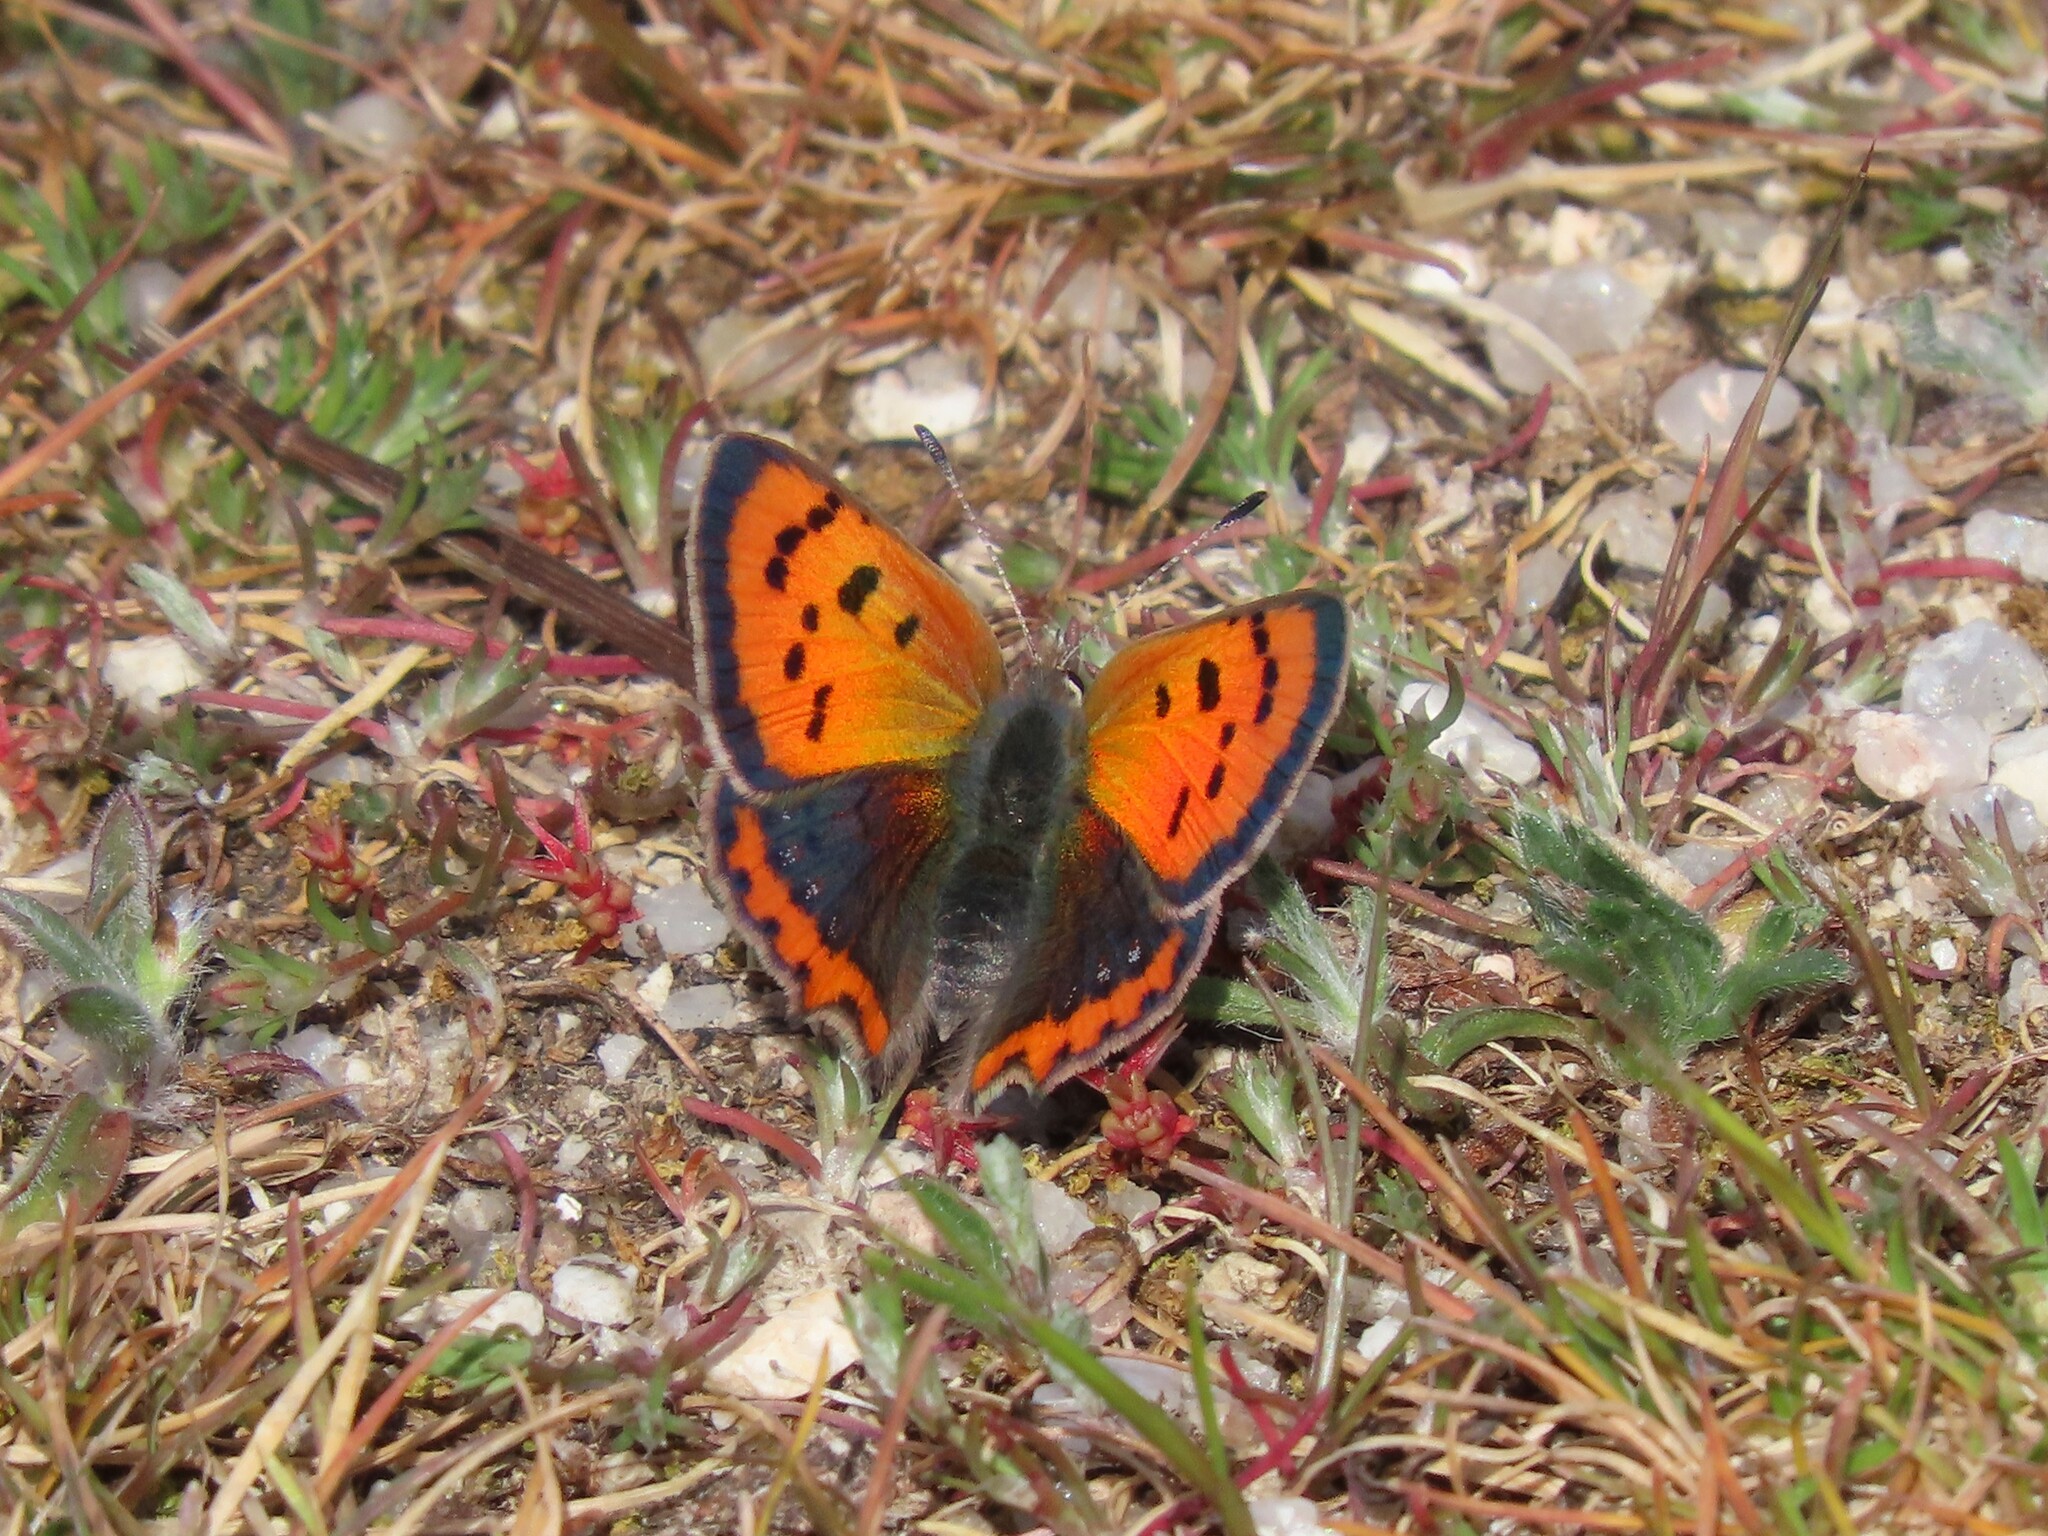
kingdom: Animalia
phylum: Arthropoda
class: Insecta
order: Lepidoptera
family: Lycaenidae
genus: Lycaena
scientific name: Lycaena phlaeas
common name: Small copper
